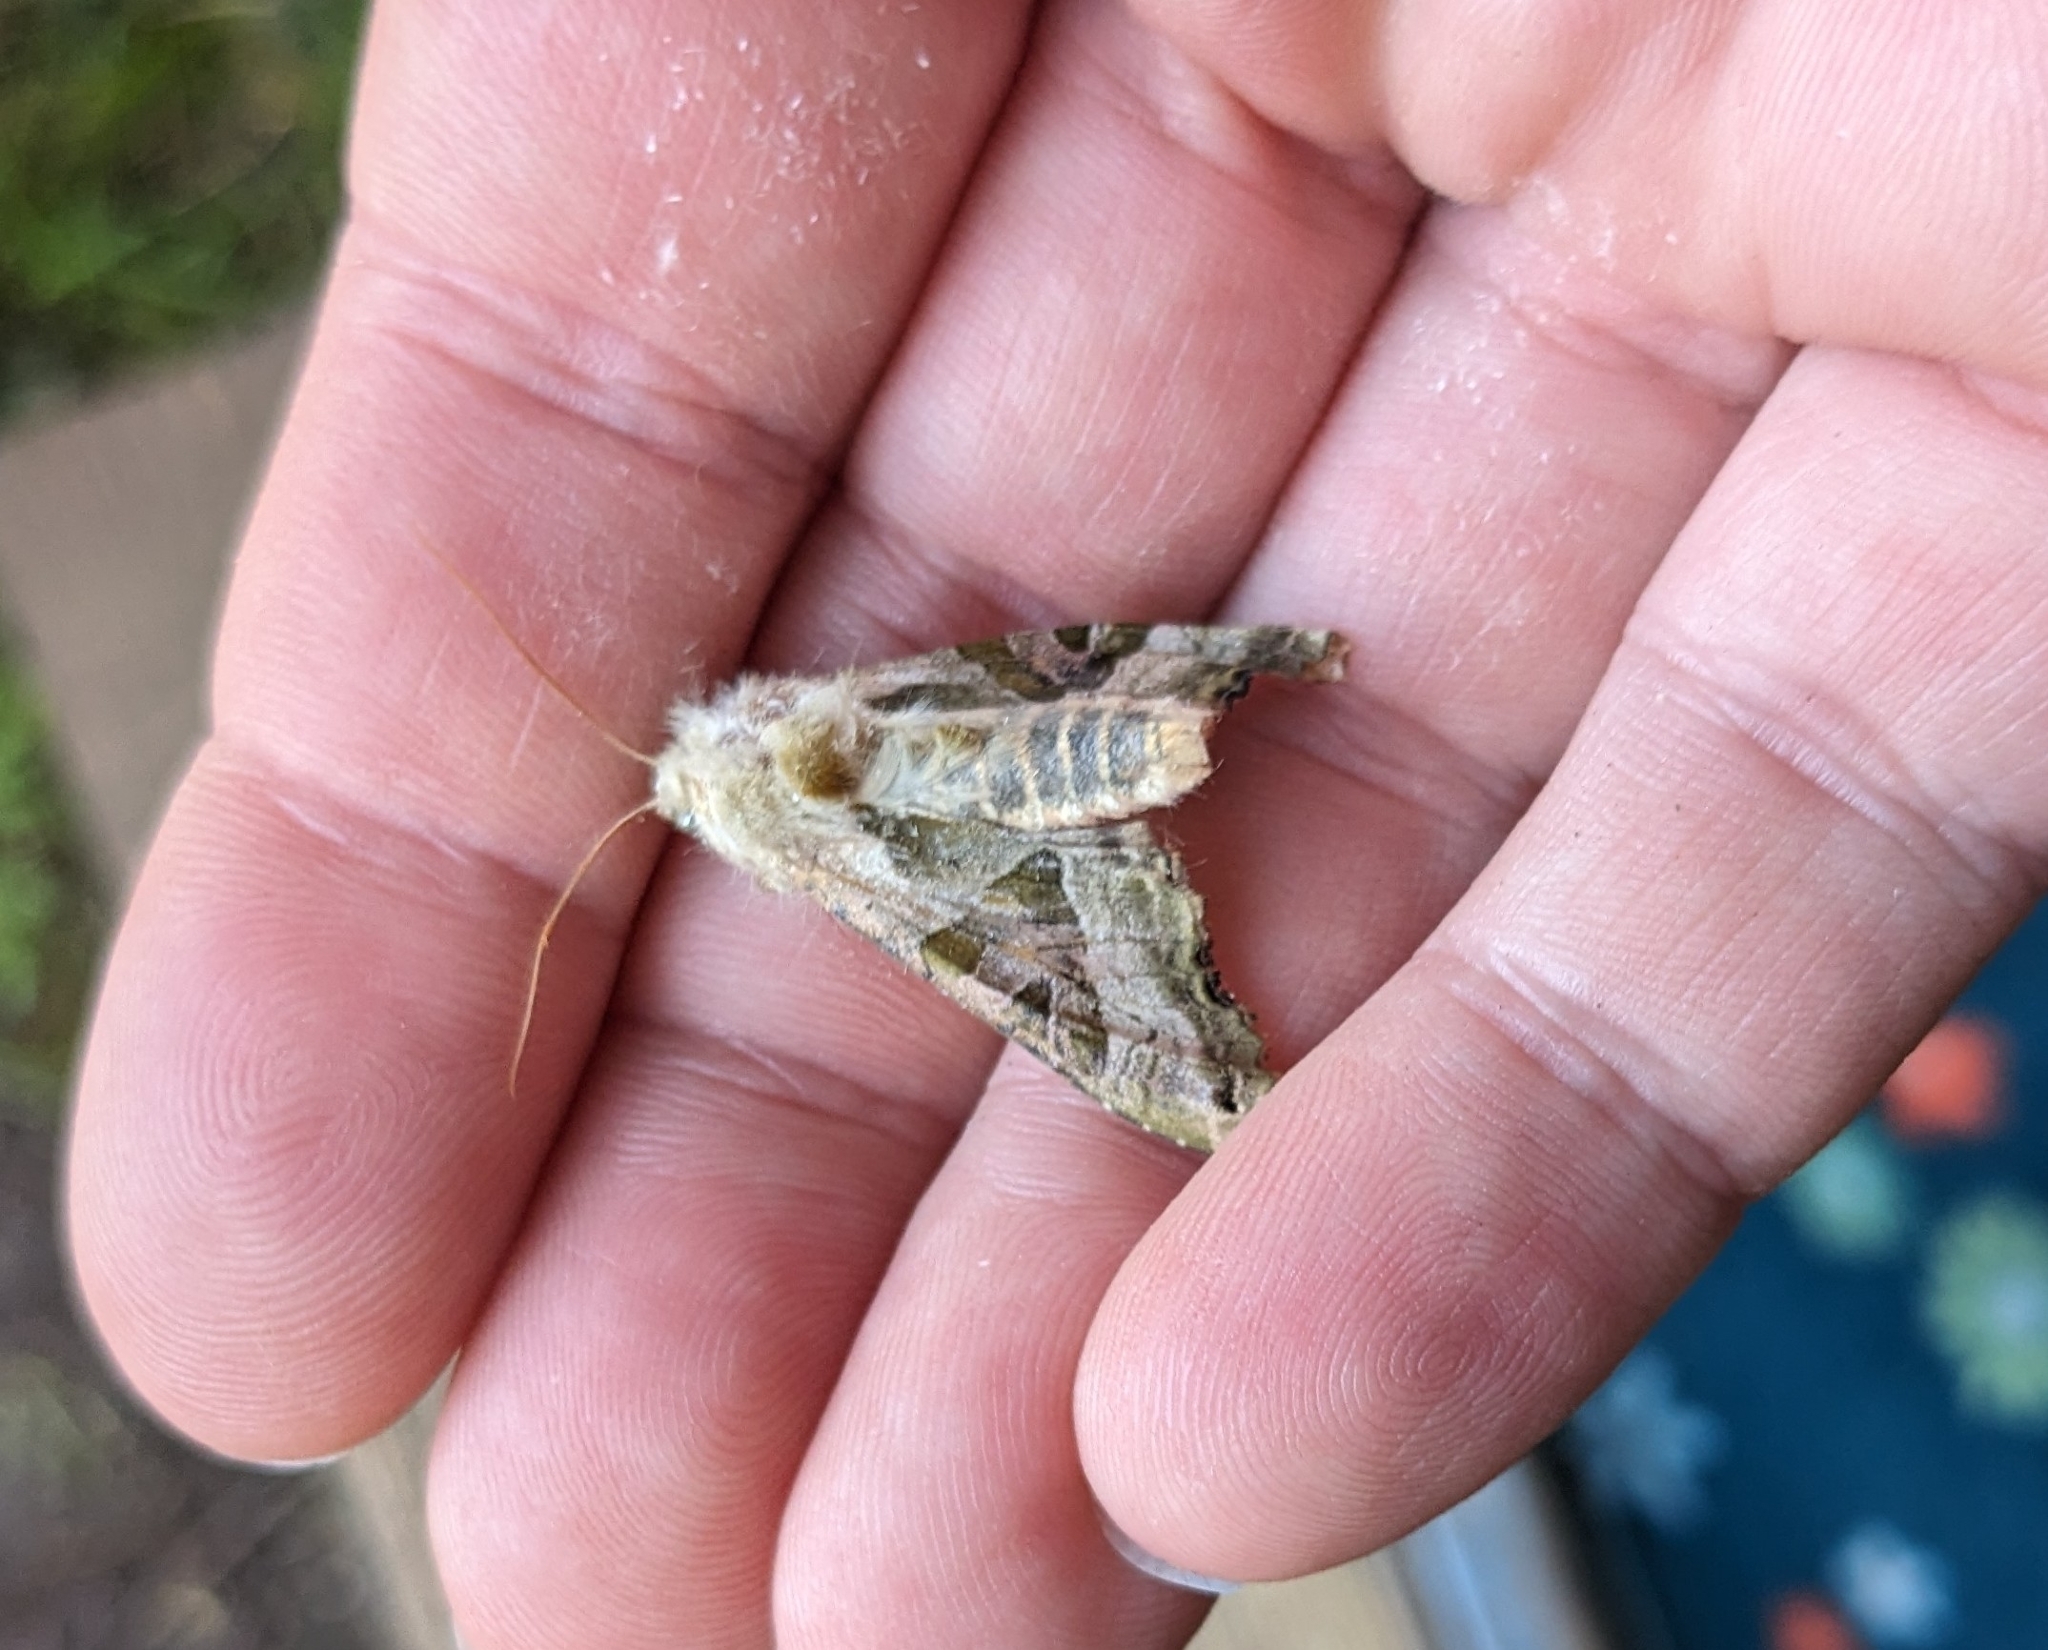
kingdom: Animalia
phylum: Arthropoda
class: Insecta
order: Lepidoptera
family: Noctuidae
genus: Phlogophora
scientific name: Phlogophora meticulosa
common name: Angle shades
